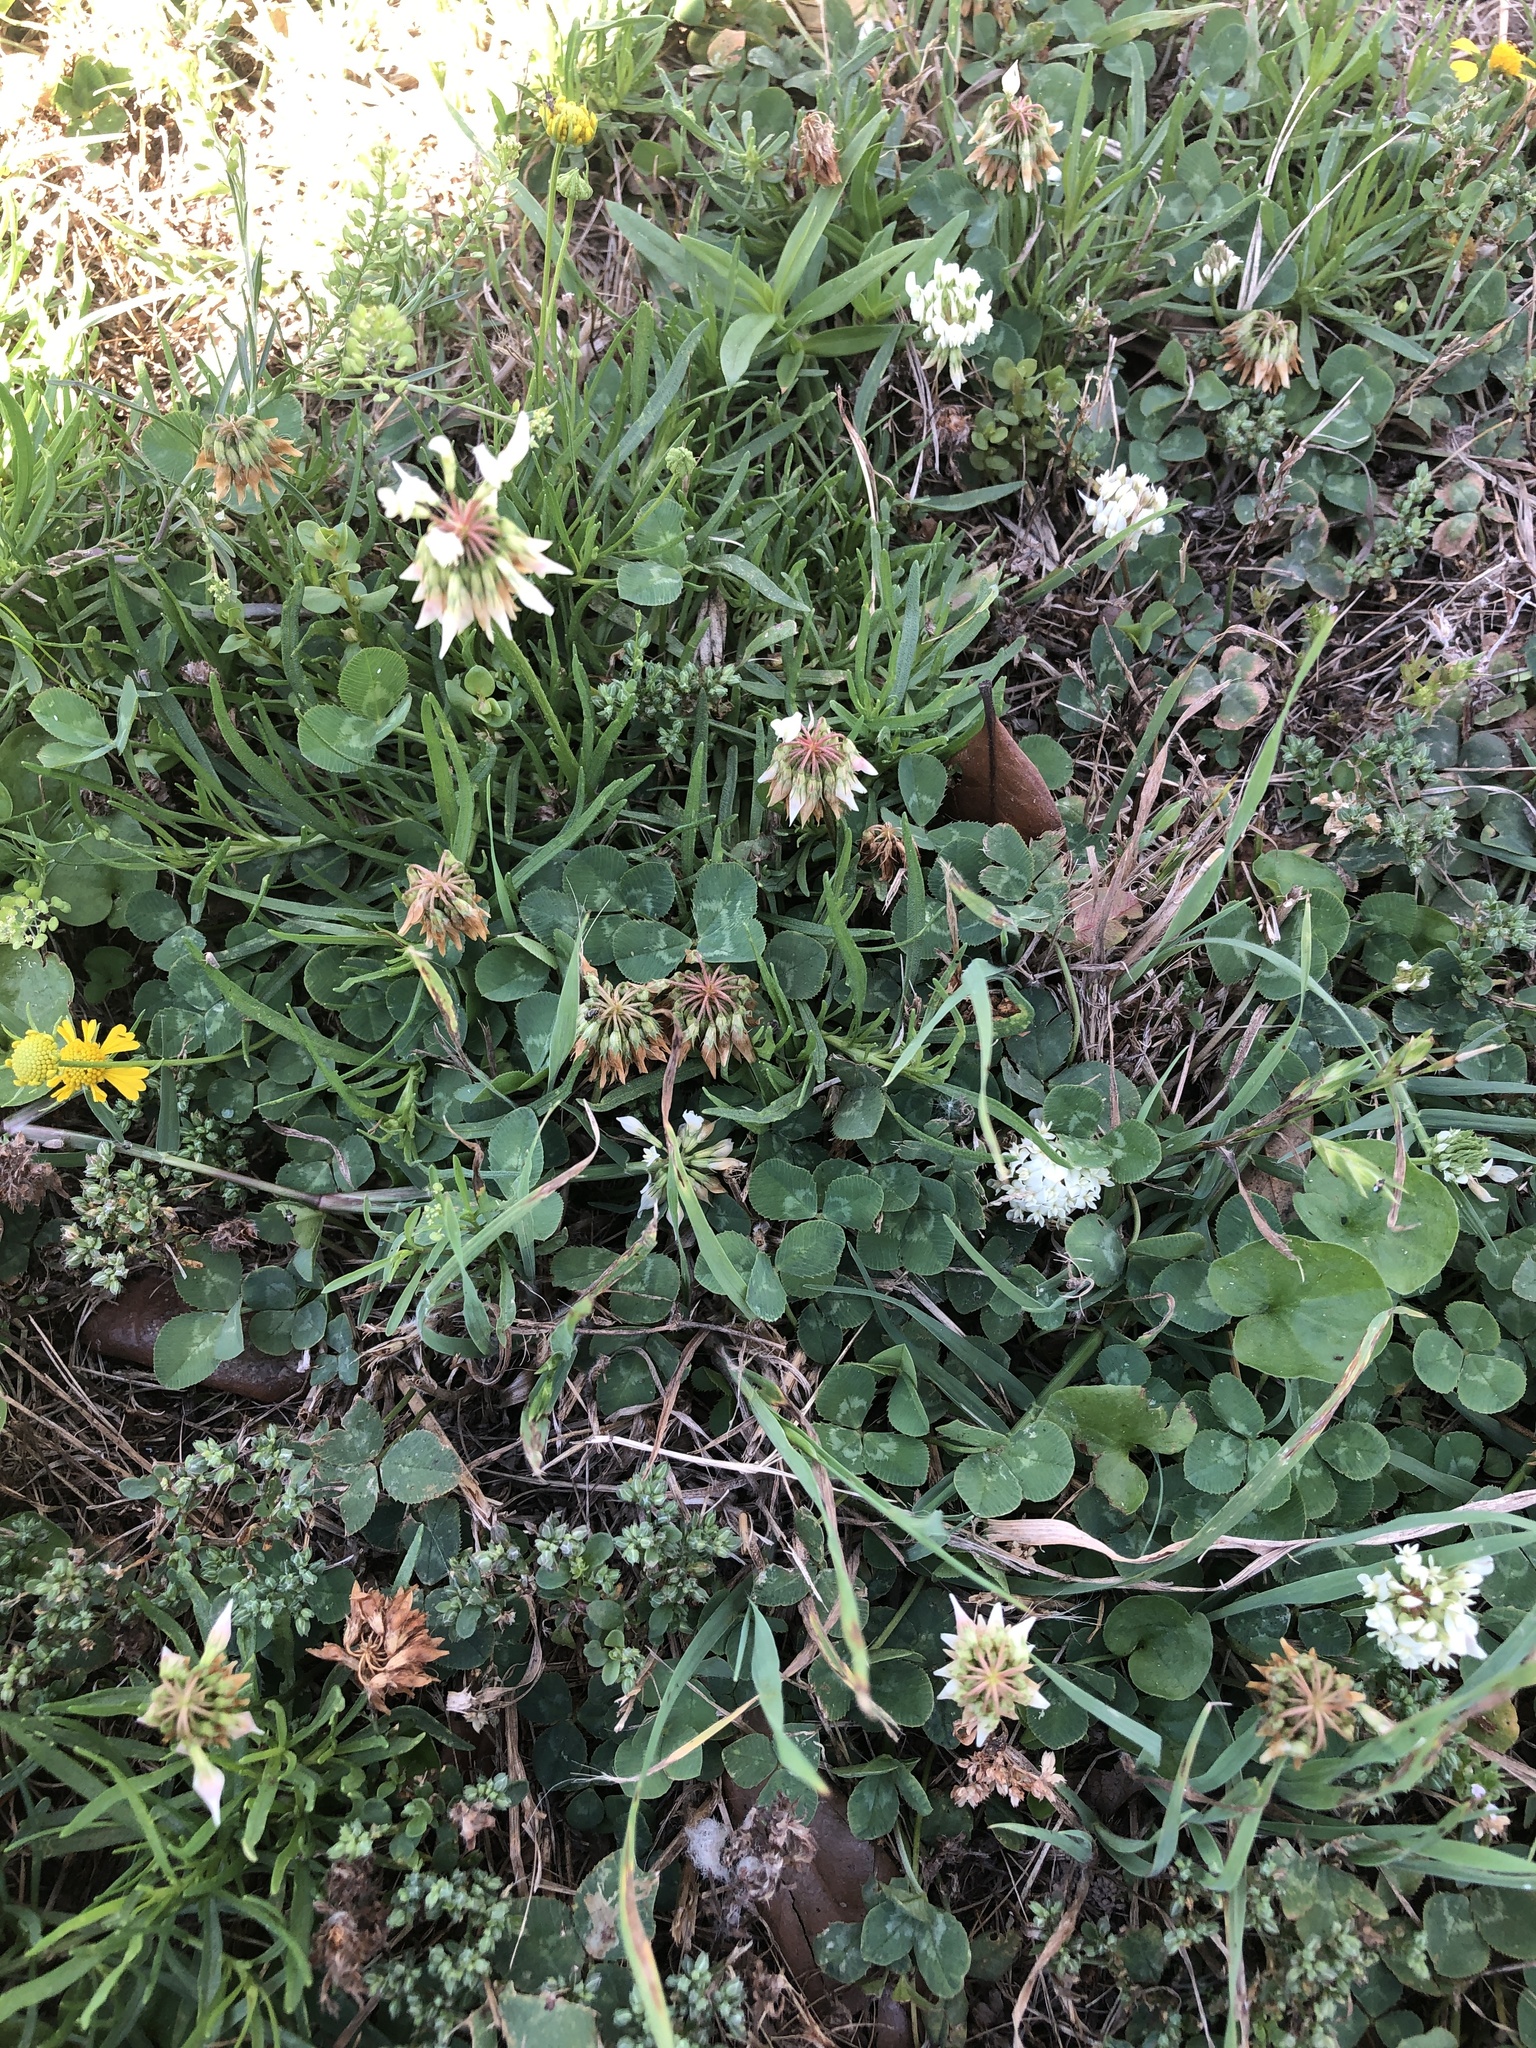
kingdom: Plantae
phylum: Tracheophyta
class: Magnoliopsida
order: Fabales
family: Fabaceae
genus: Trifolium
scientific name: Trifolium repens
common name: White clover
